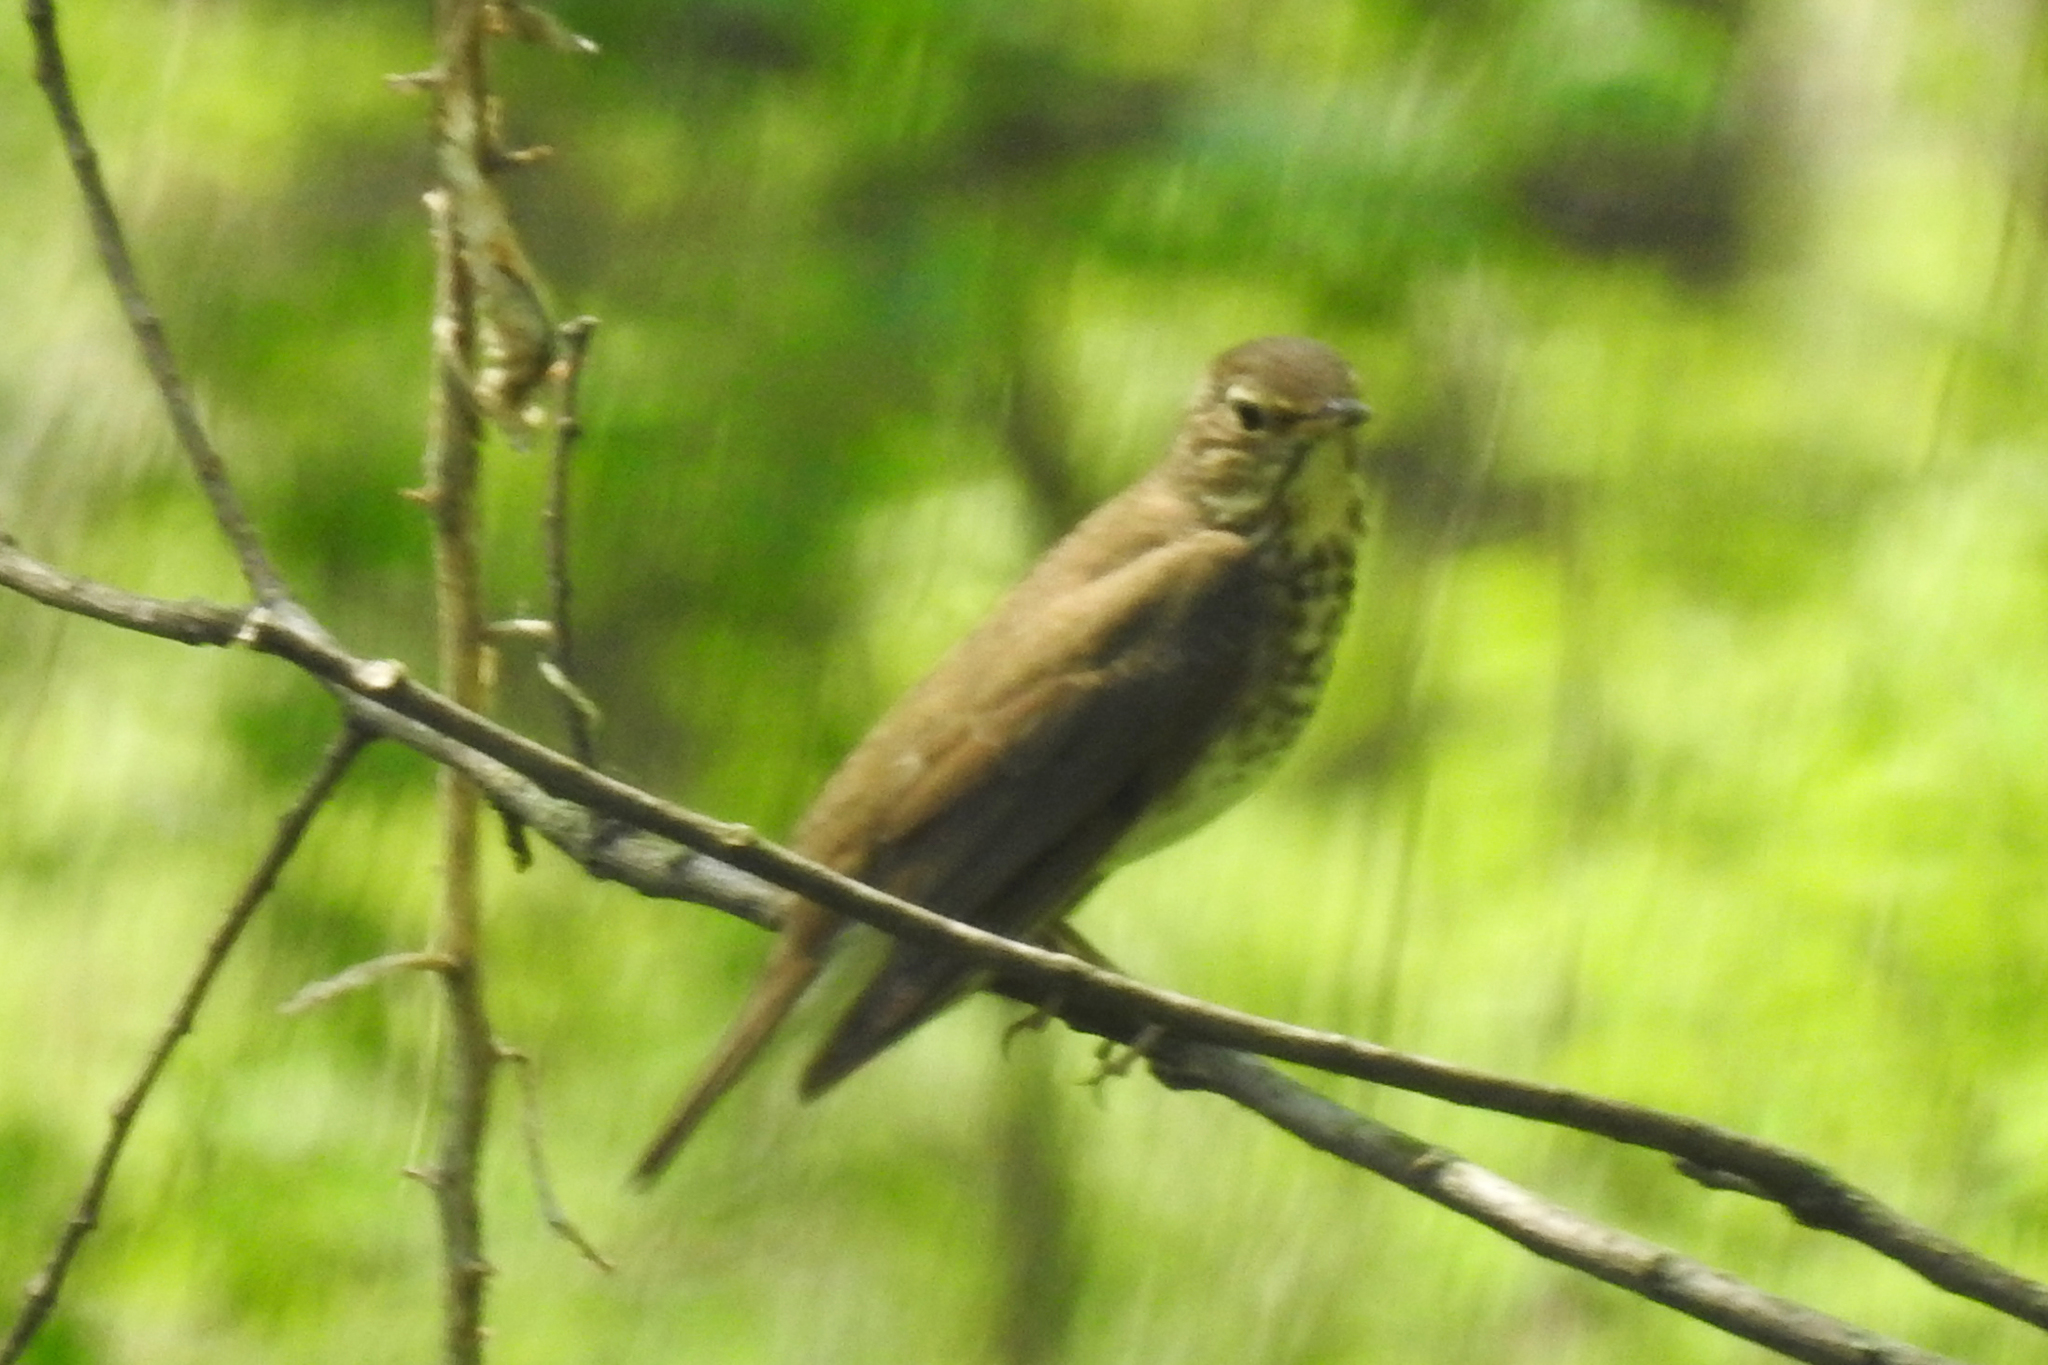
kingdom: Animalia
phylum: Chordata
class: Aves
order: Passeriformes
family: Turdidae
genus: Catharus
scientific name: Catharus ustulatus
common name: Swainson's thrush
